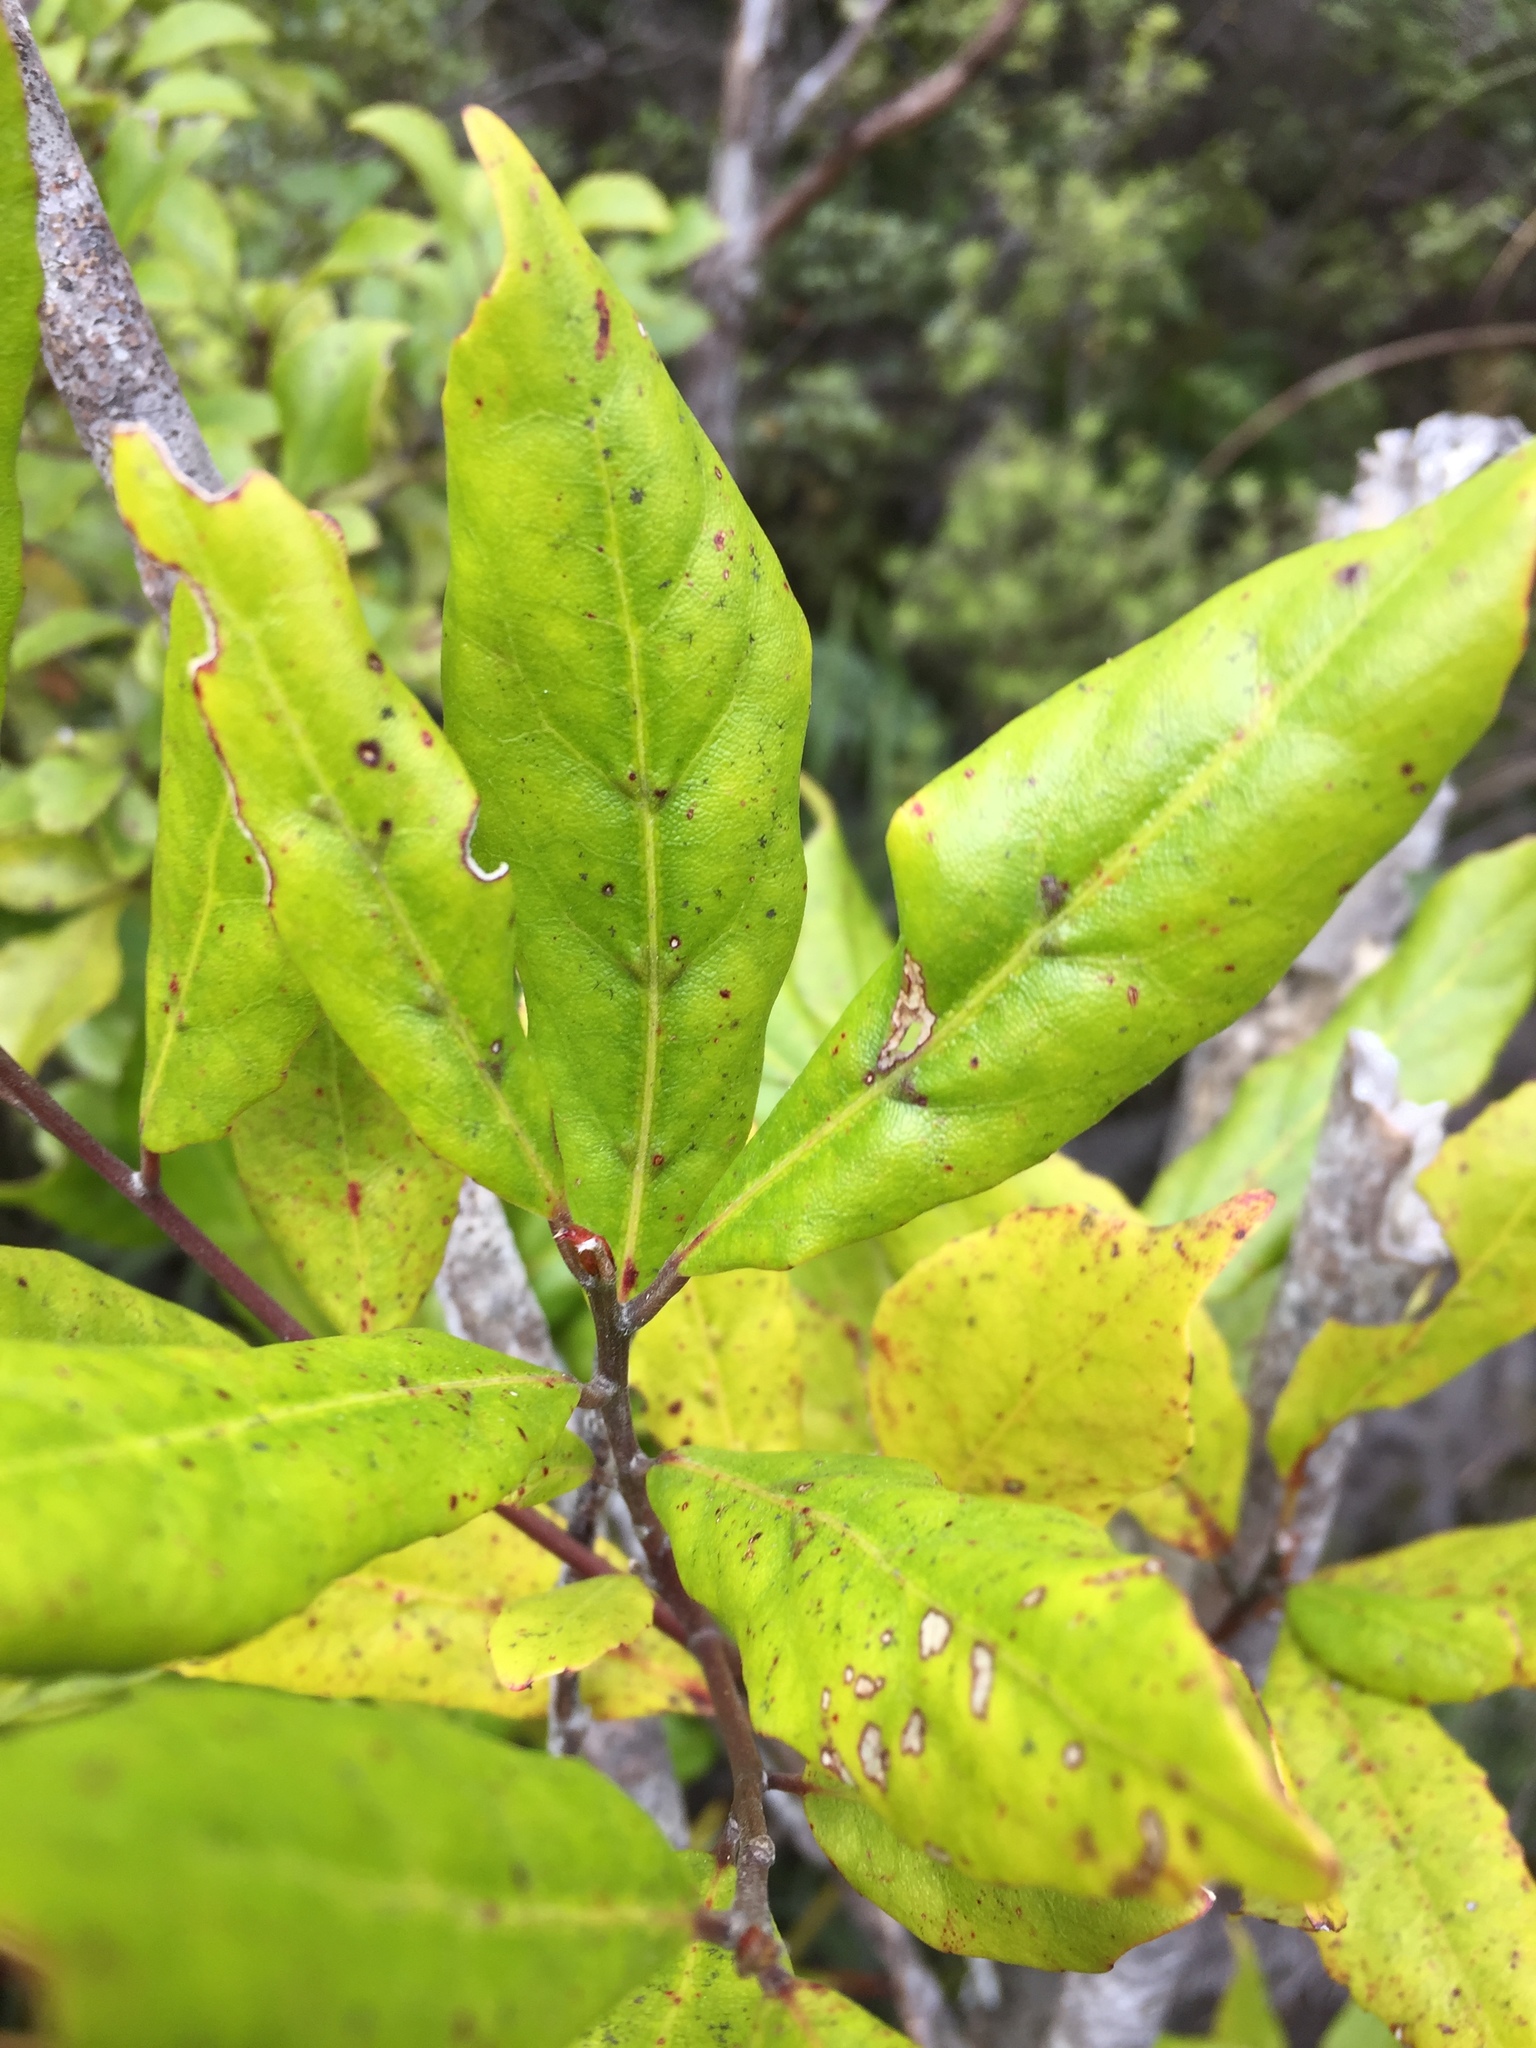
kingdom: Plantae
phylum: Tracheophyta
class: Magnoliopsida
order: Oxalidales
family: Elaeocarpaceae
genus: Elaeocarpus
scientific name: Elaeocarpus dentatus
